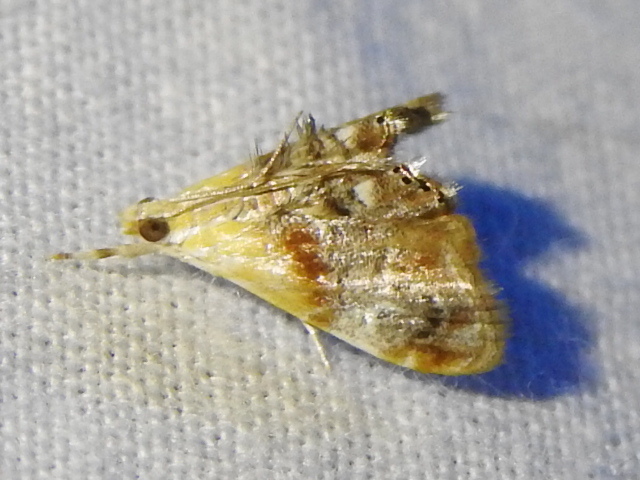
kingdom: Animalia
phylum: Arthropoda
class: Insecta
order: Lepidoptera
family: Crambidae
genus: Dicymolomia
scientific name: Dicymolomia julianalis
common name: Julia's dicymolomia moth
